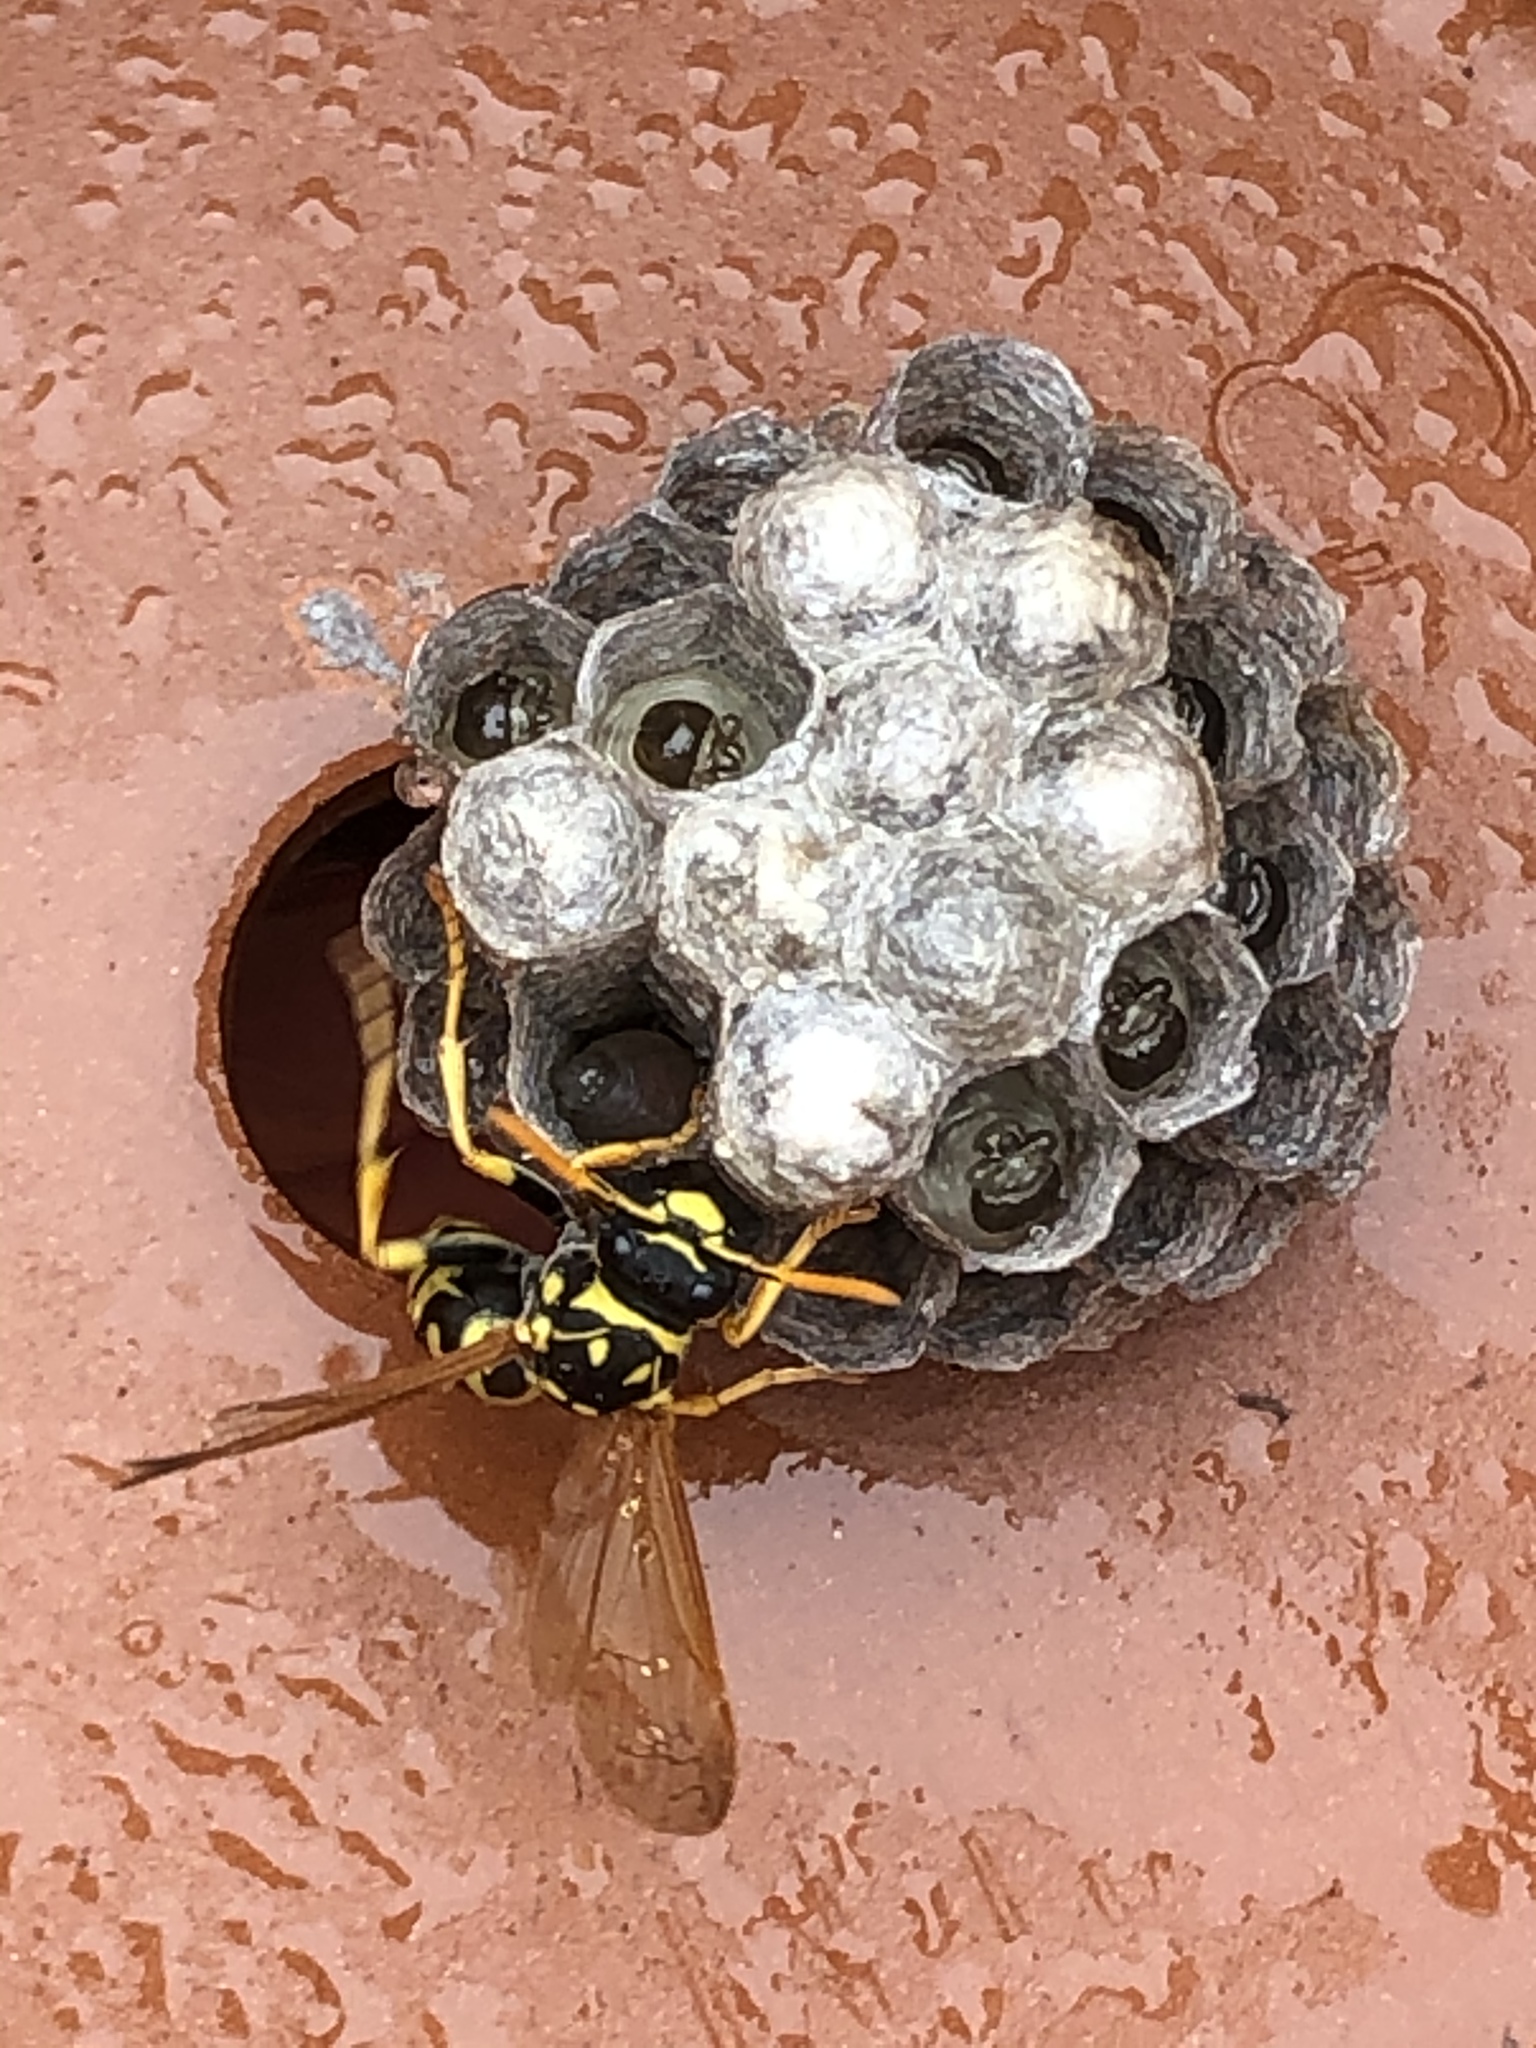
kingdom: Animalia
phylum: Arthropoda
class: Insecta
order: Hymenoptera
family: Eumenidae
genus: Polistes
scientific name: Polistes dominula
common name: Paper wasp
